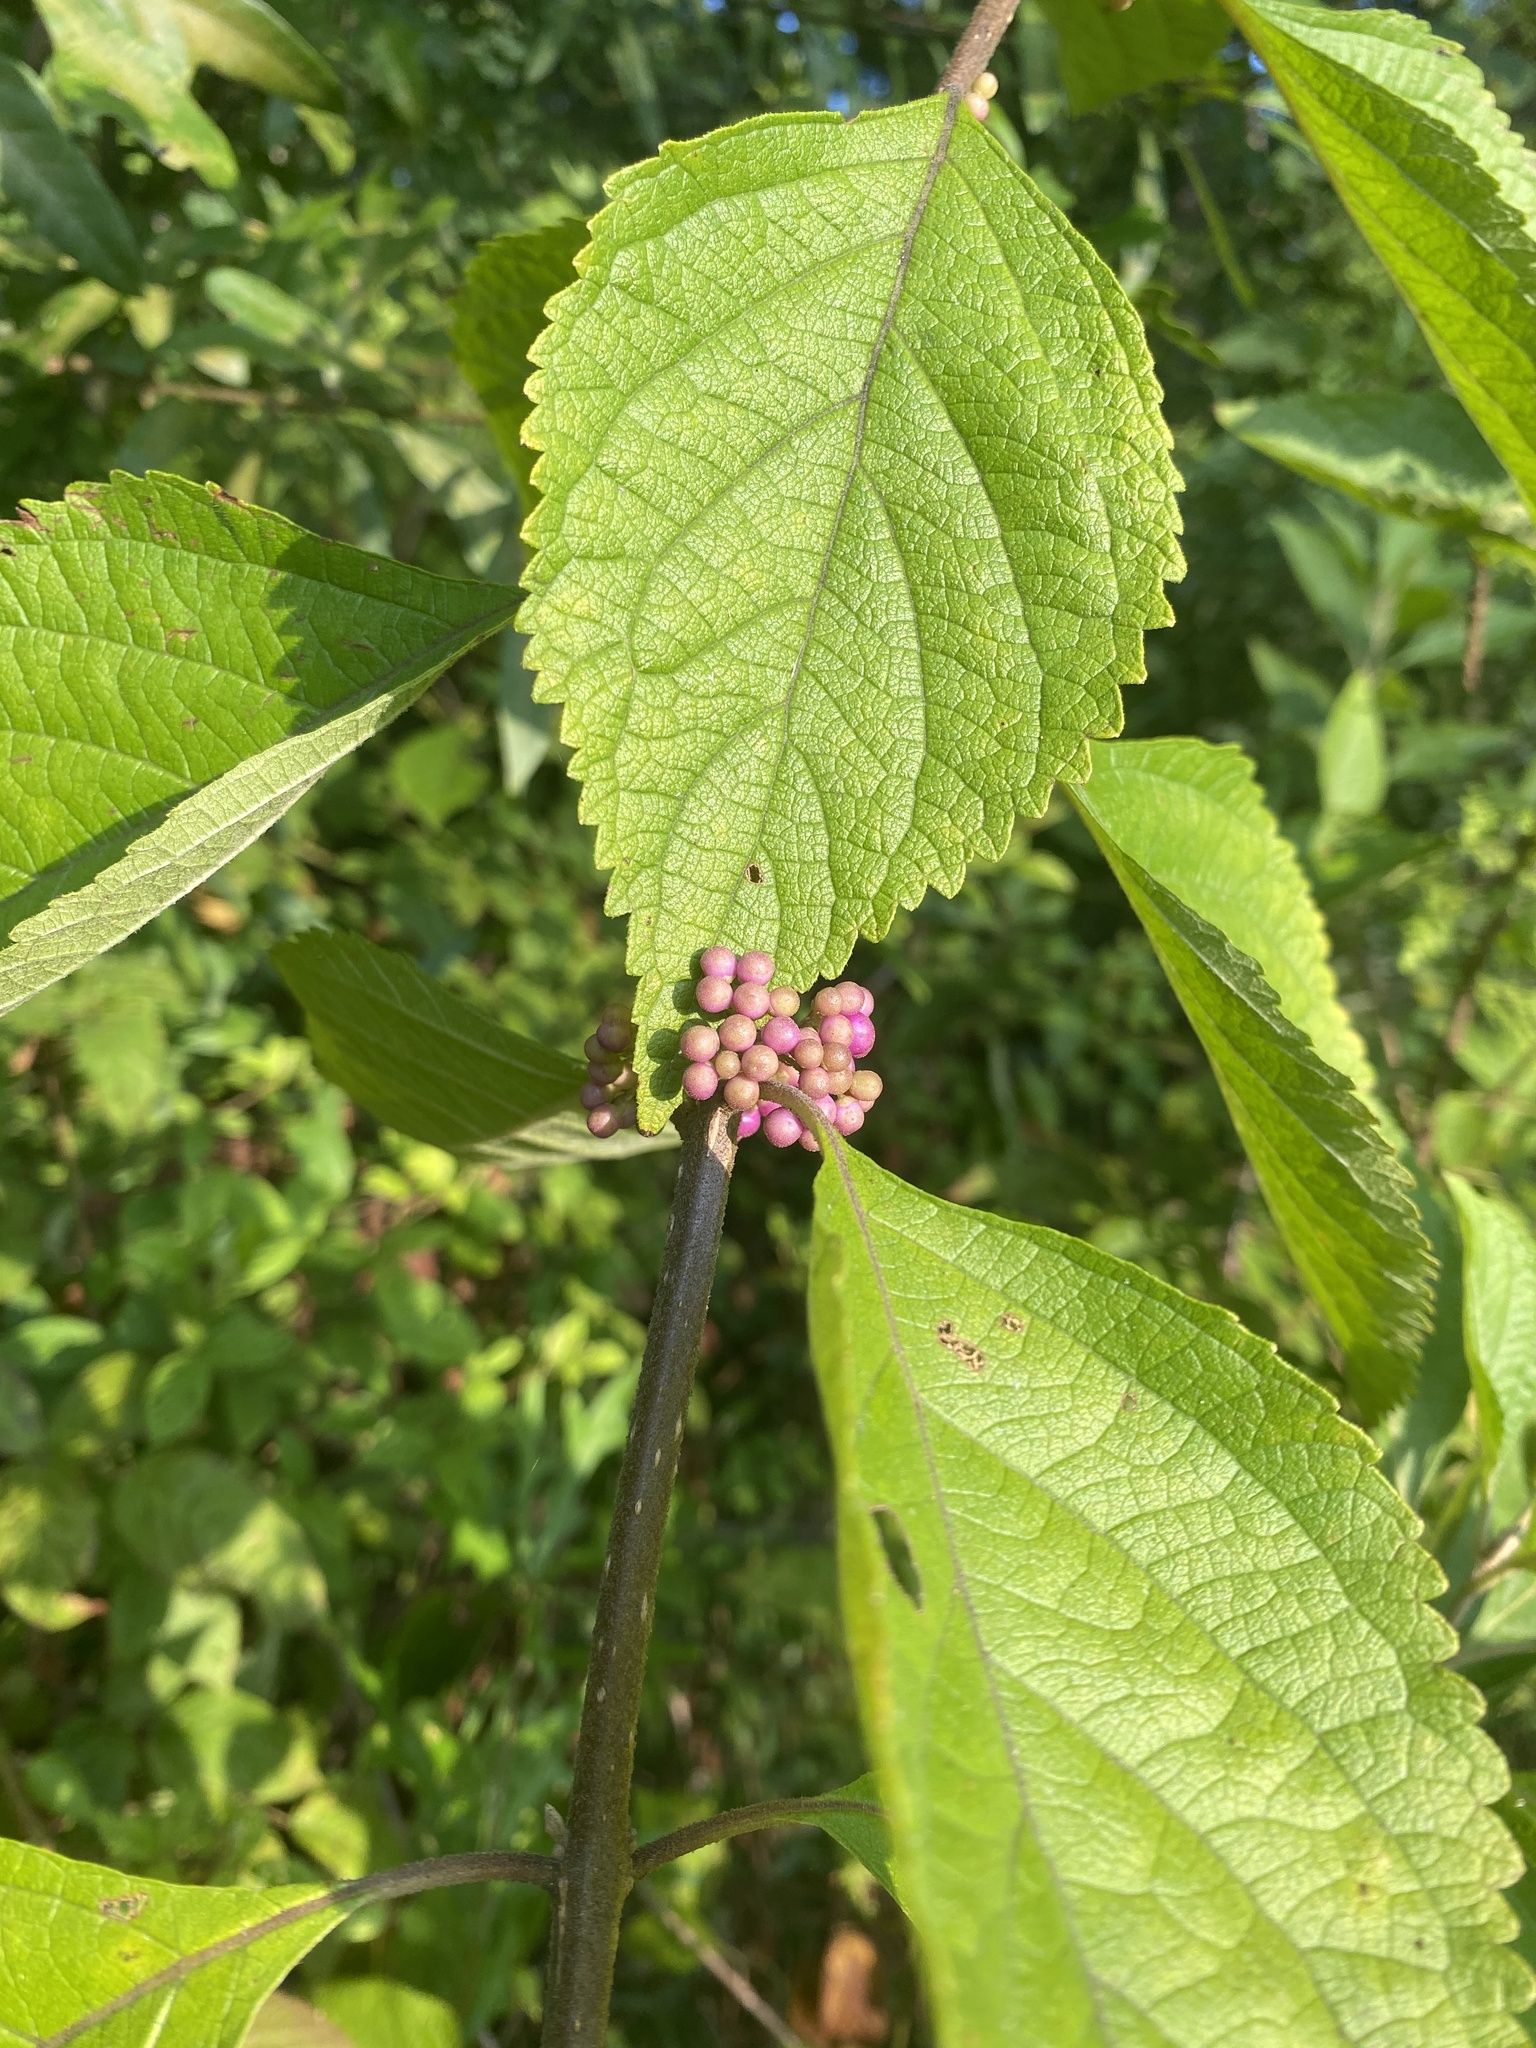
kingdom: Plantae
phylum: Tracheophyta
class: Magnoliopsida
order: Lamiales
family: Lamiaceae
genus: Callicarpa
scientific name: Callicarpa americana
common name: American beautyberry
